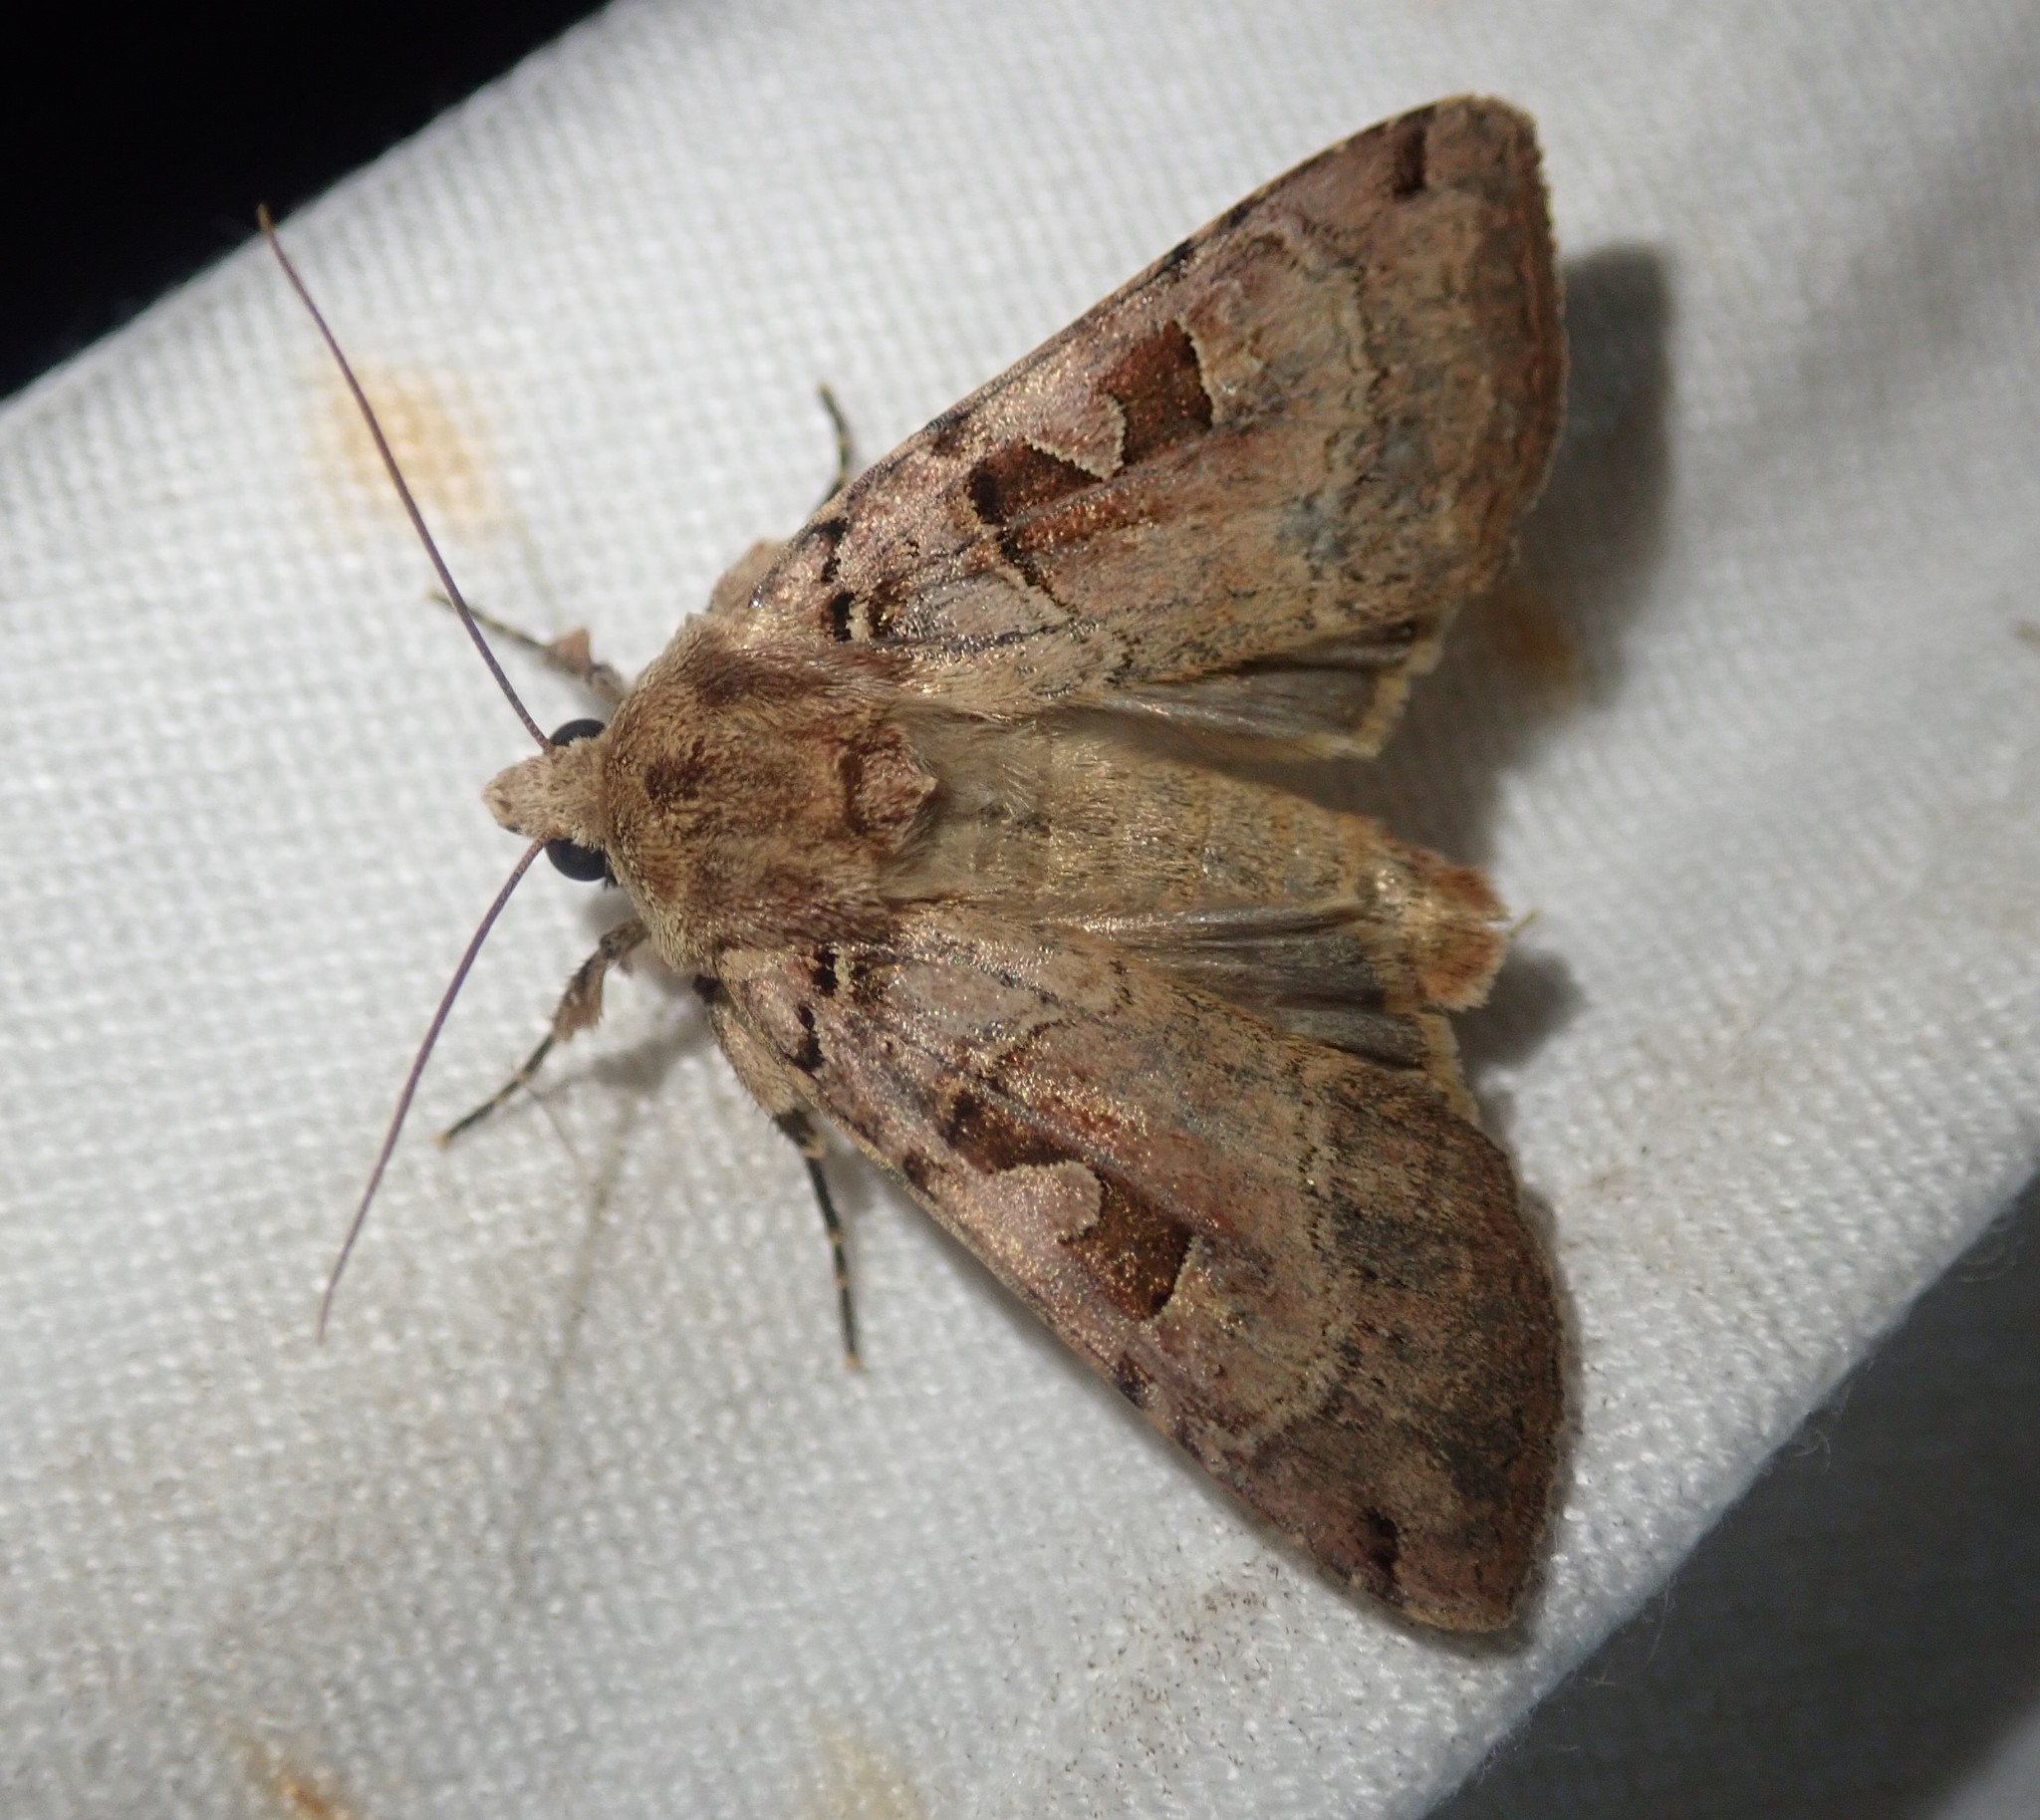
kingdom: Animalia
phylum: Arthropoda
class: Insecta
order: Lepidoptera
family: Noctuidae
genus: Xestia
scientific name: Xestia triangulum
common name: Double square-spot
